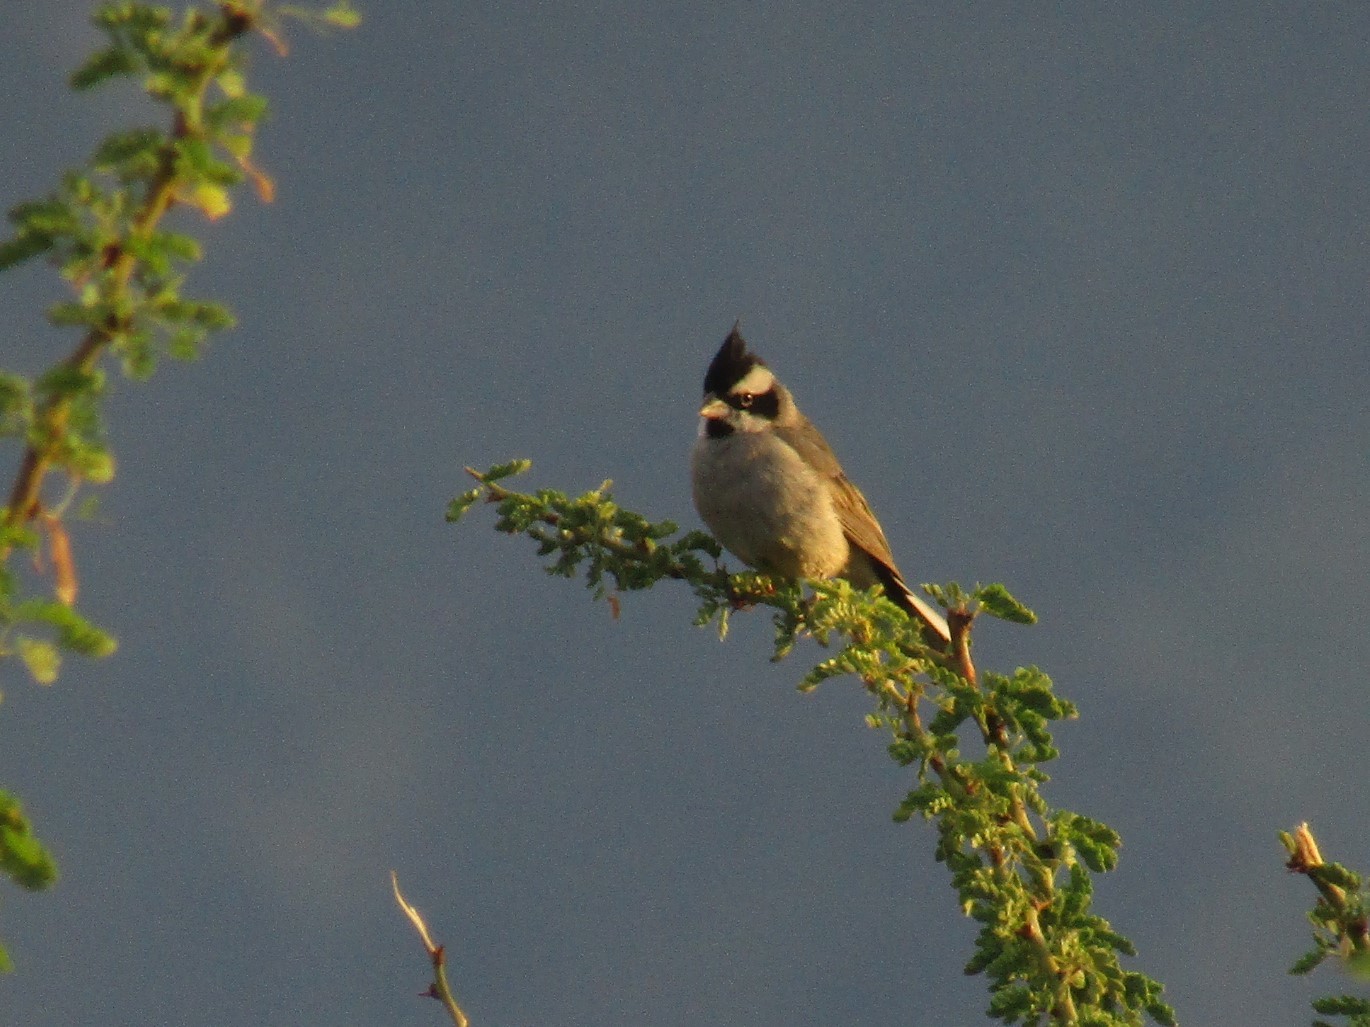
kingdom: Animalia
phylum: Chordata
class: Aves
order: Passeriformes
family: Thraupidae
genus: Lophospingus
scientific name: Lophospingus pusillus
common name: Black-crested finch
